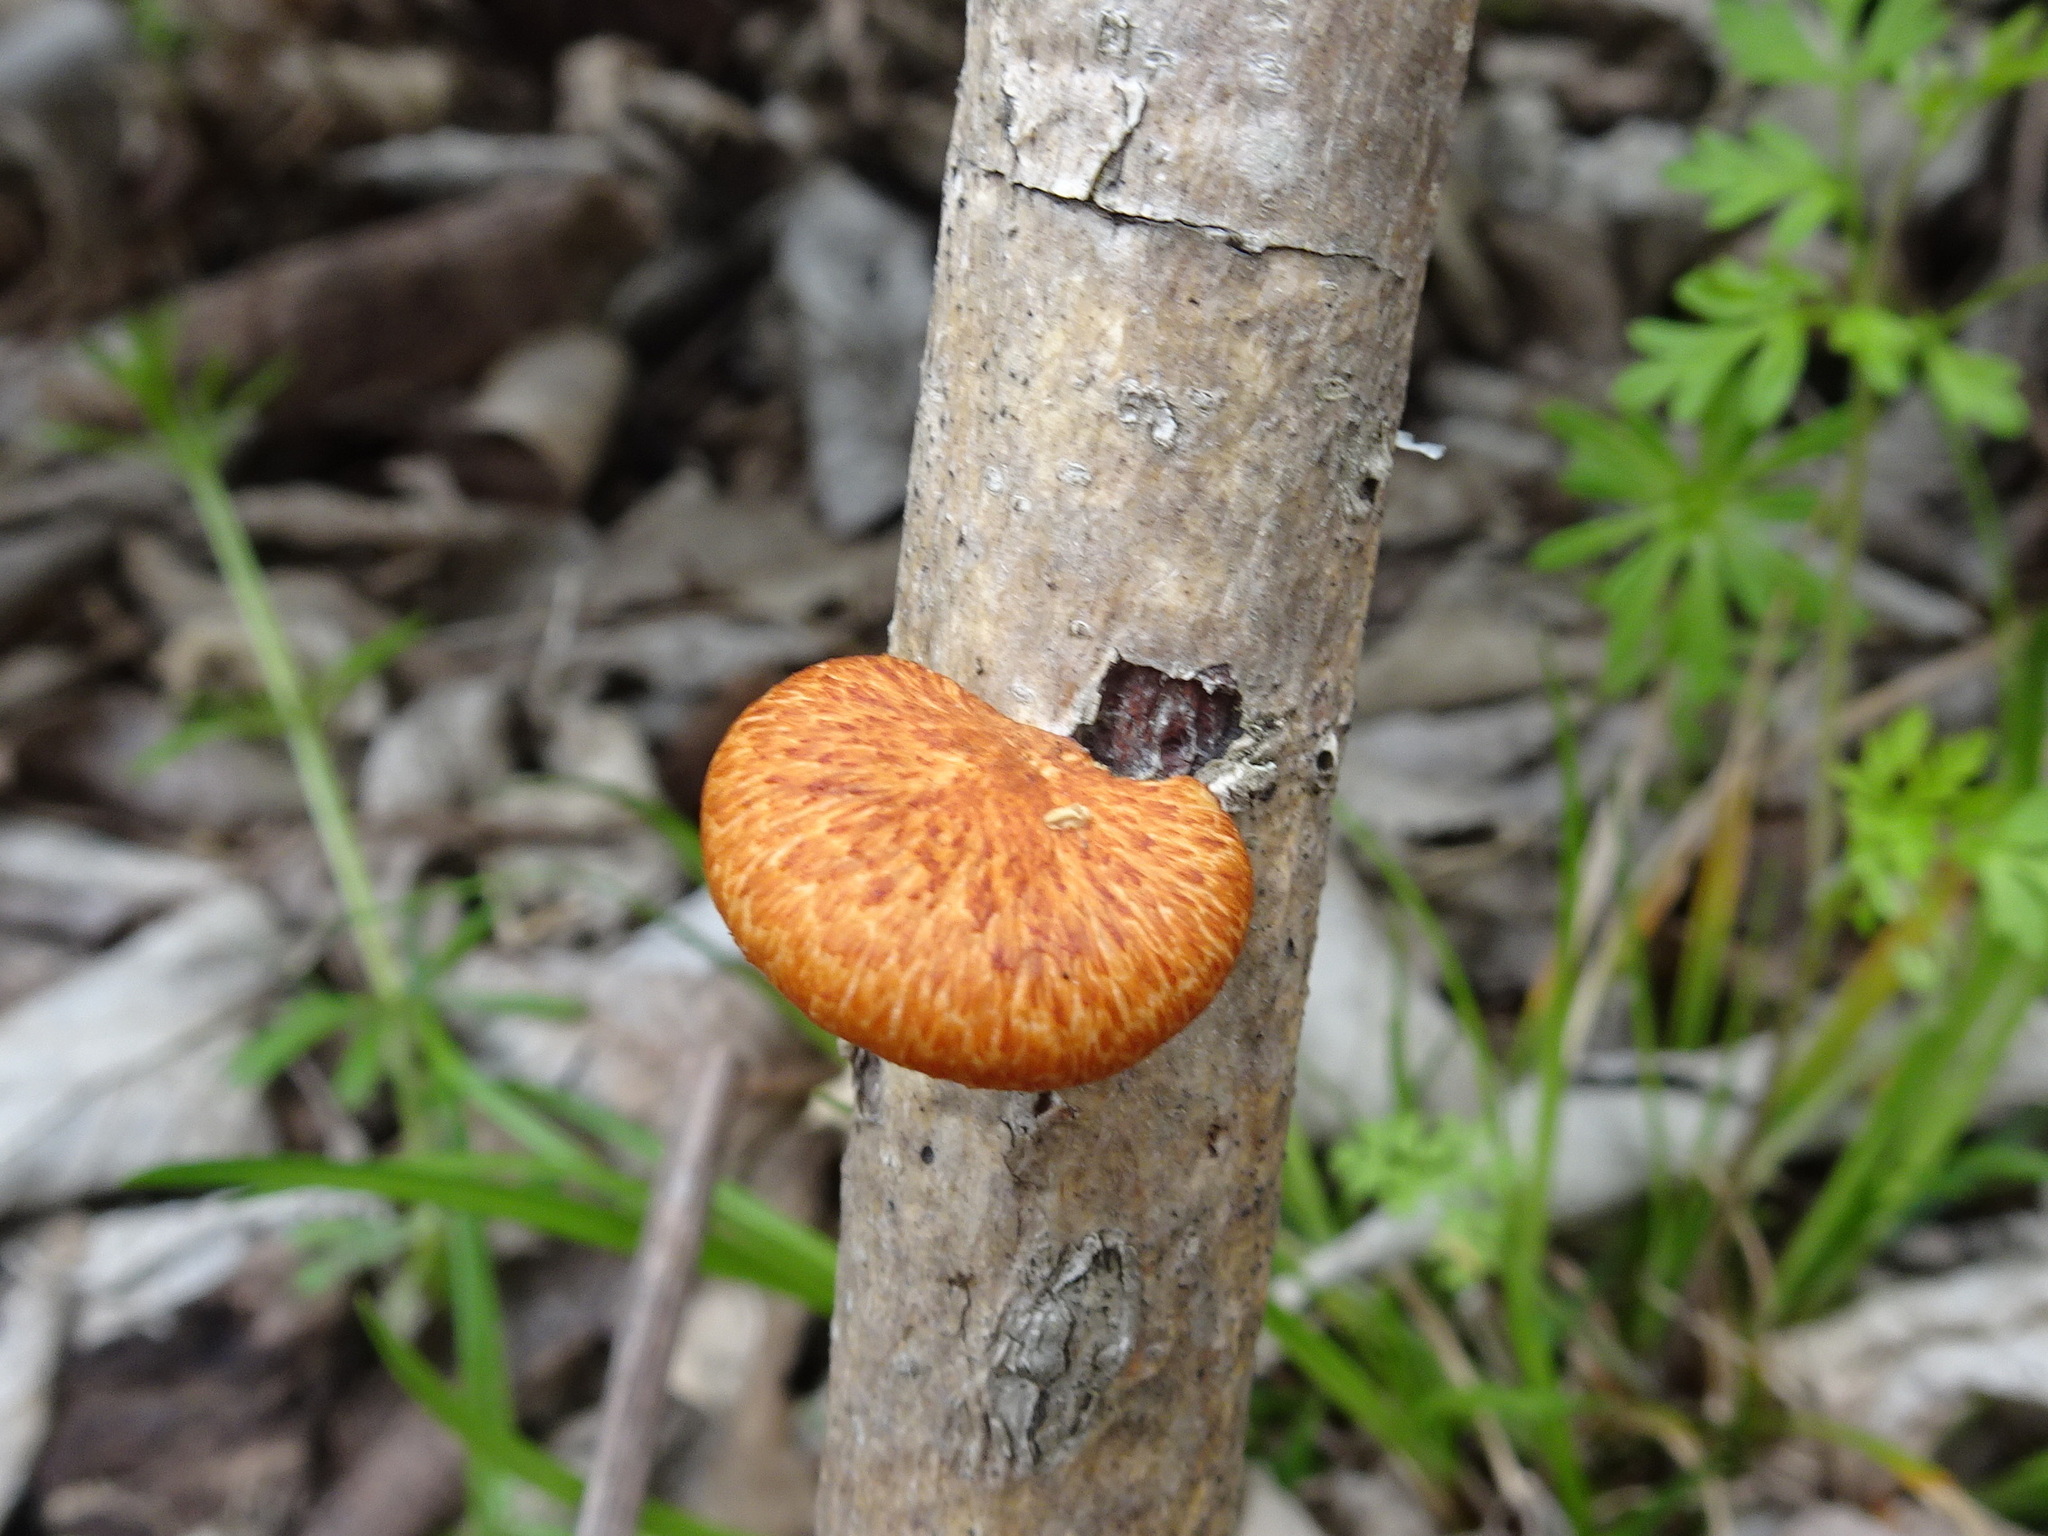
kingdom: Fungi
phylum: Basidiomycota
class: Agaricomycetes
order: Polyporales
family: Polyporaceae
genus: Neofavolus
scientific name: Neofavolus alveolaris
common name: Hexagonal-pored polypore
